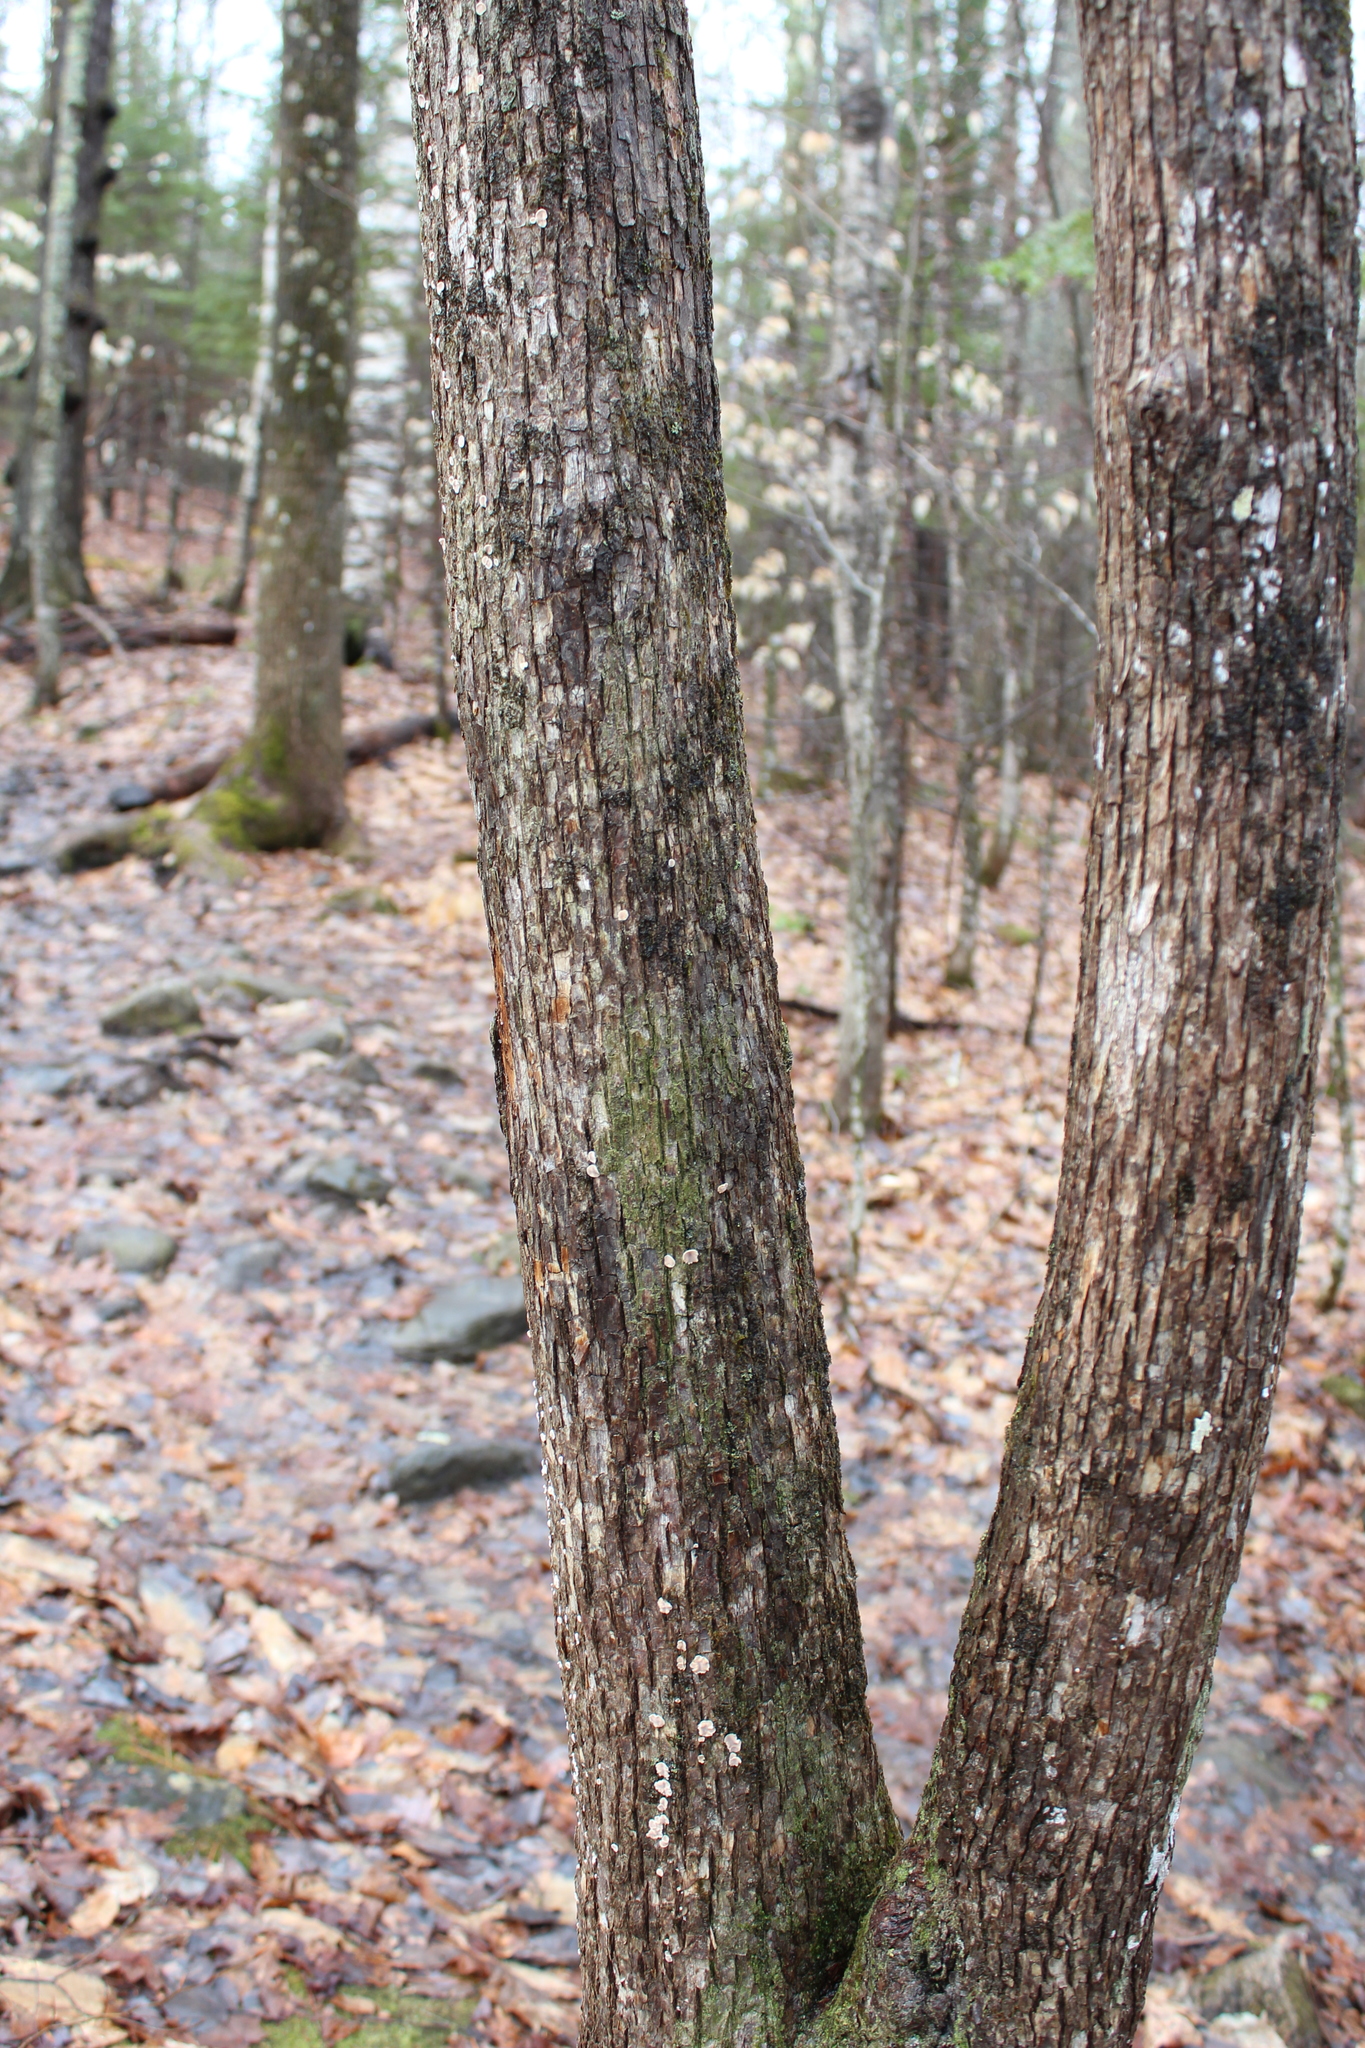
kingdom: Plantae
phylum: Tracheophyta
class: Magnoliopsida
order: Fagales
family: Betulaceae
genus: Ostrya
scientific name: Ostrya virginiana
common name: Ironwood
